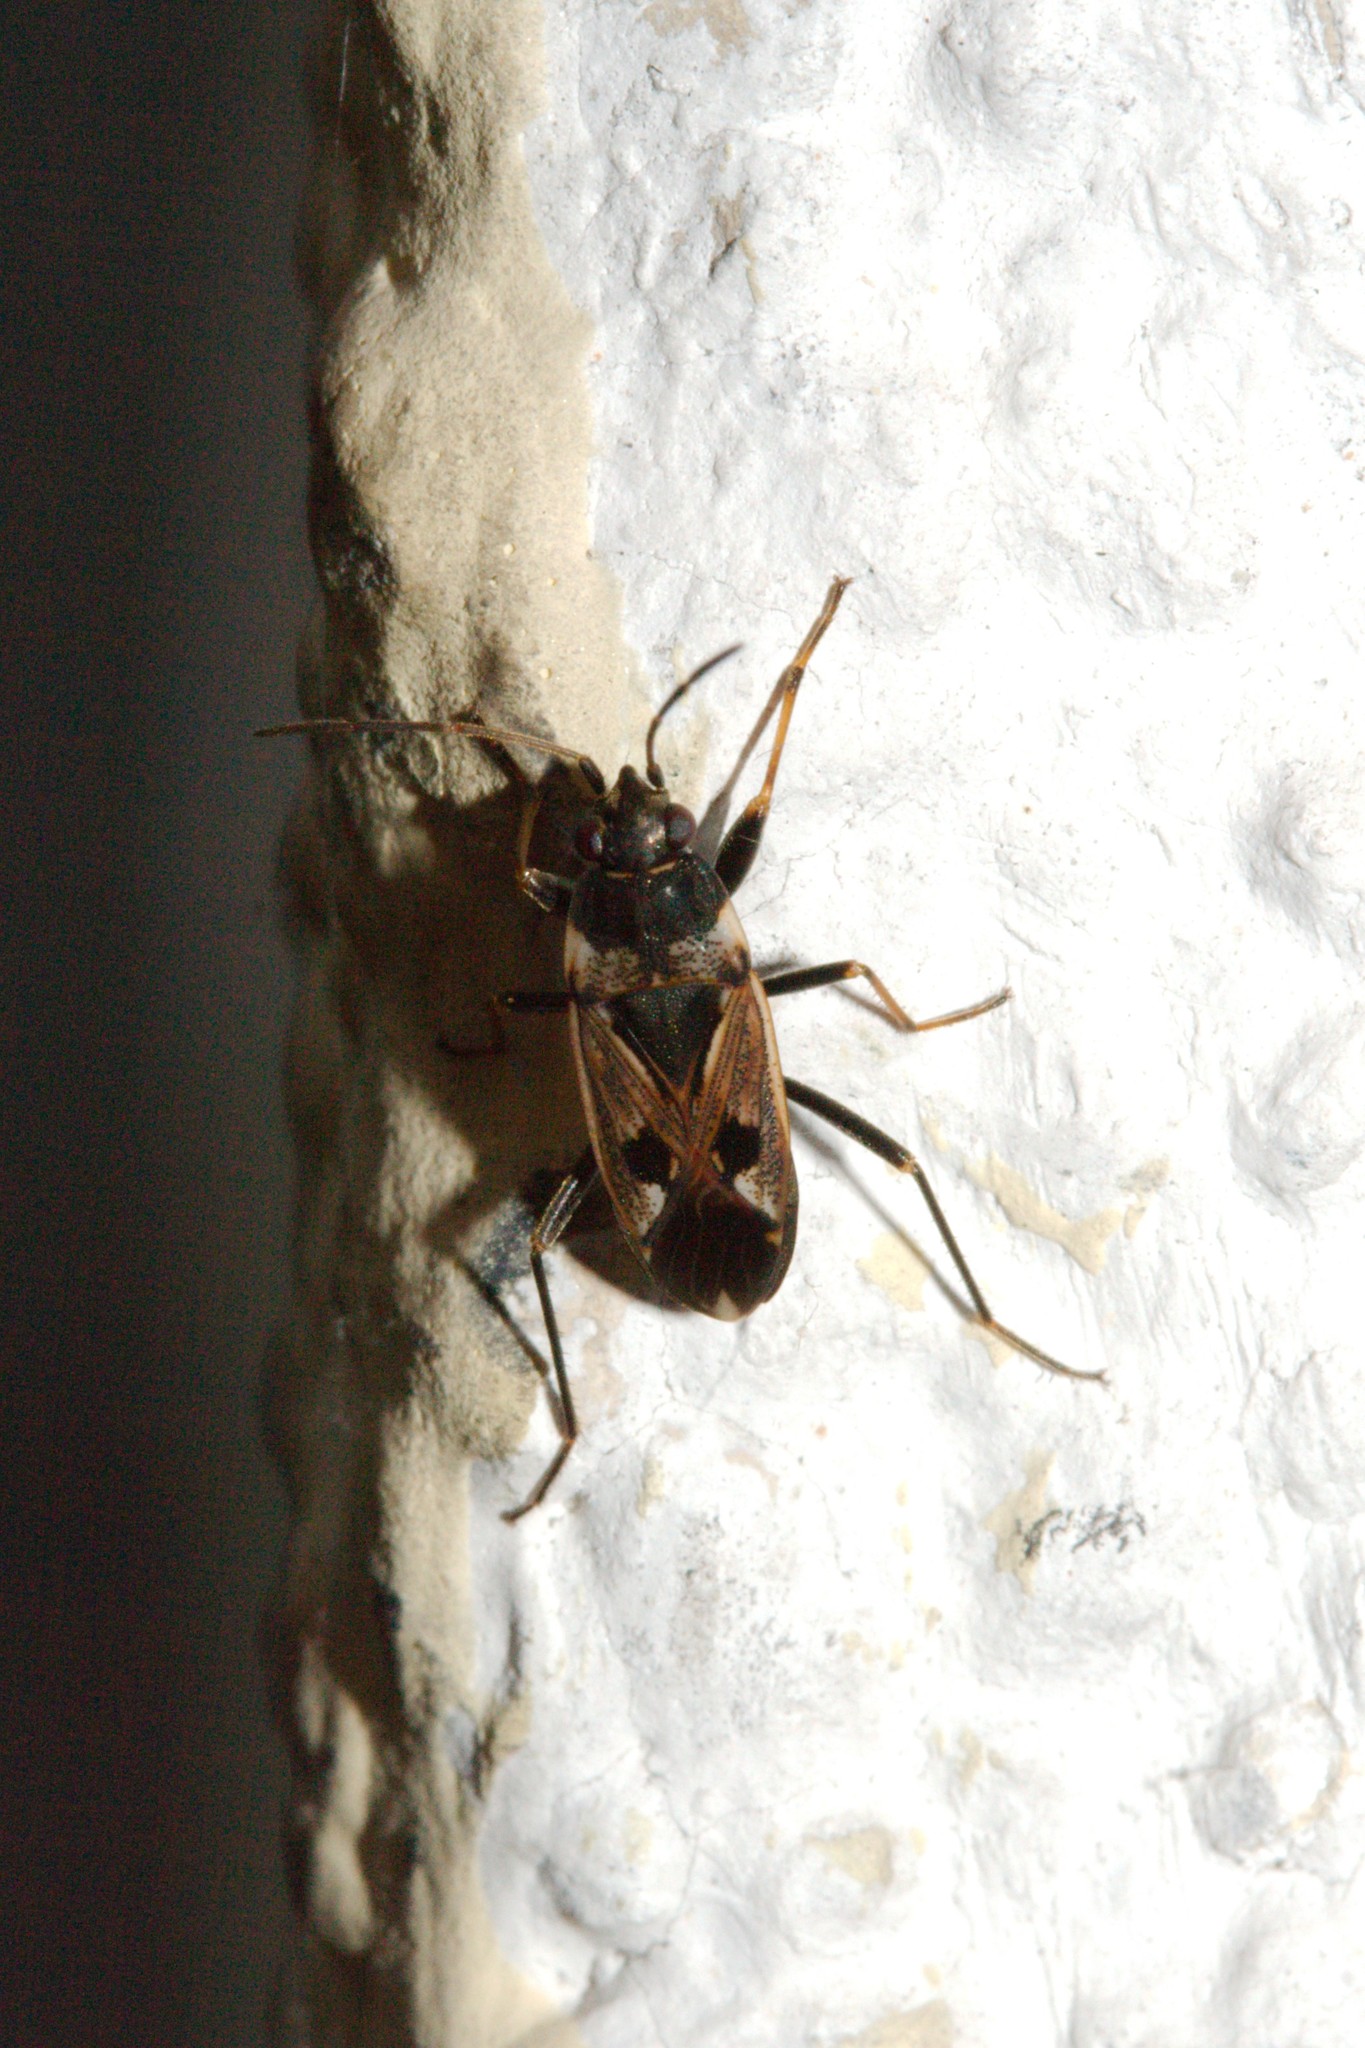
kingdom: Animalia
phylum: Arthropoda
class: Insecta
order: Hemiptera
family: Rhyparochromidae
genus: Rhyparochromus
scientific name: Rhyparochromus vulgaris
